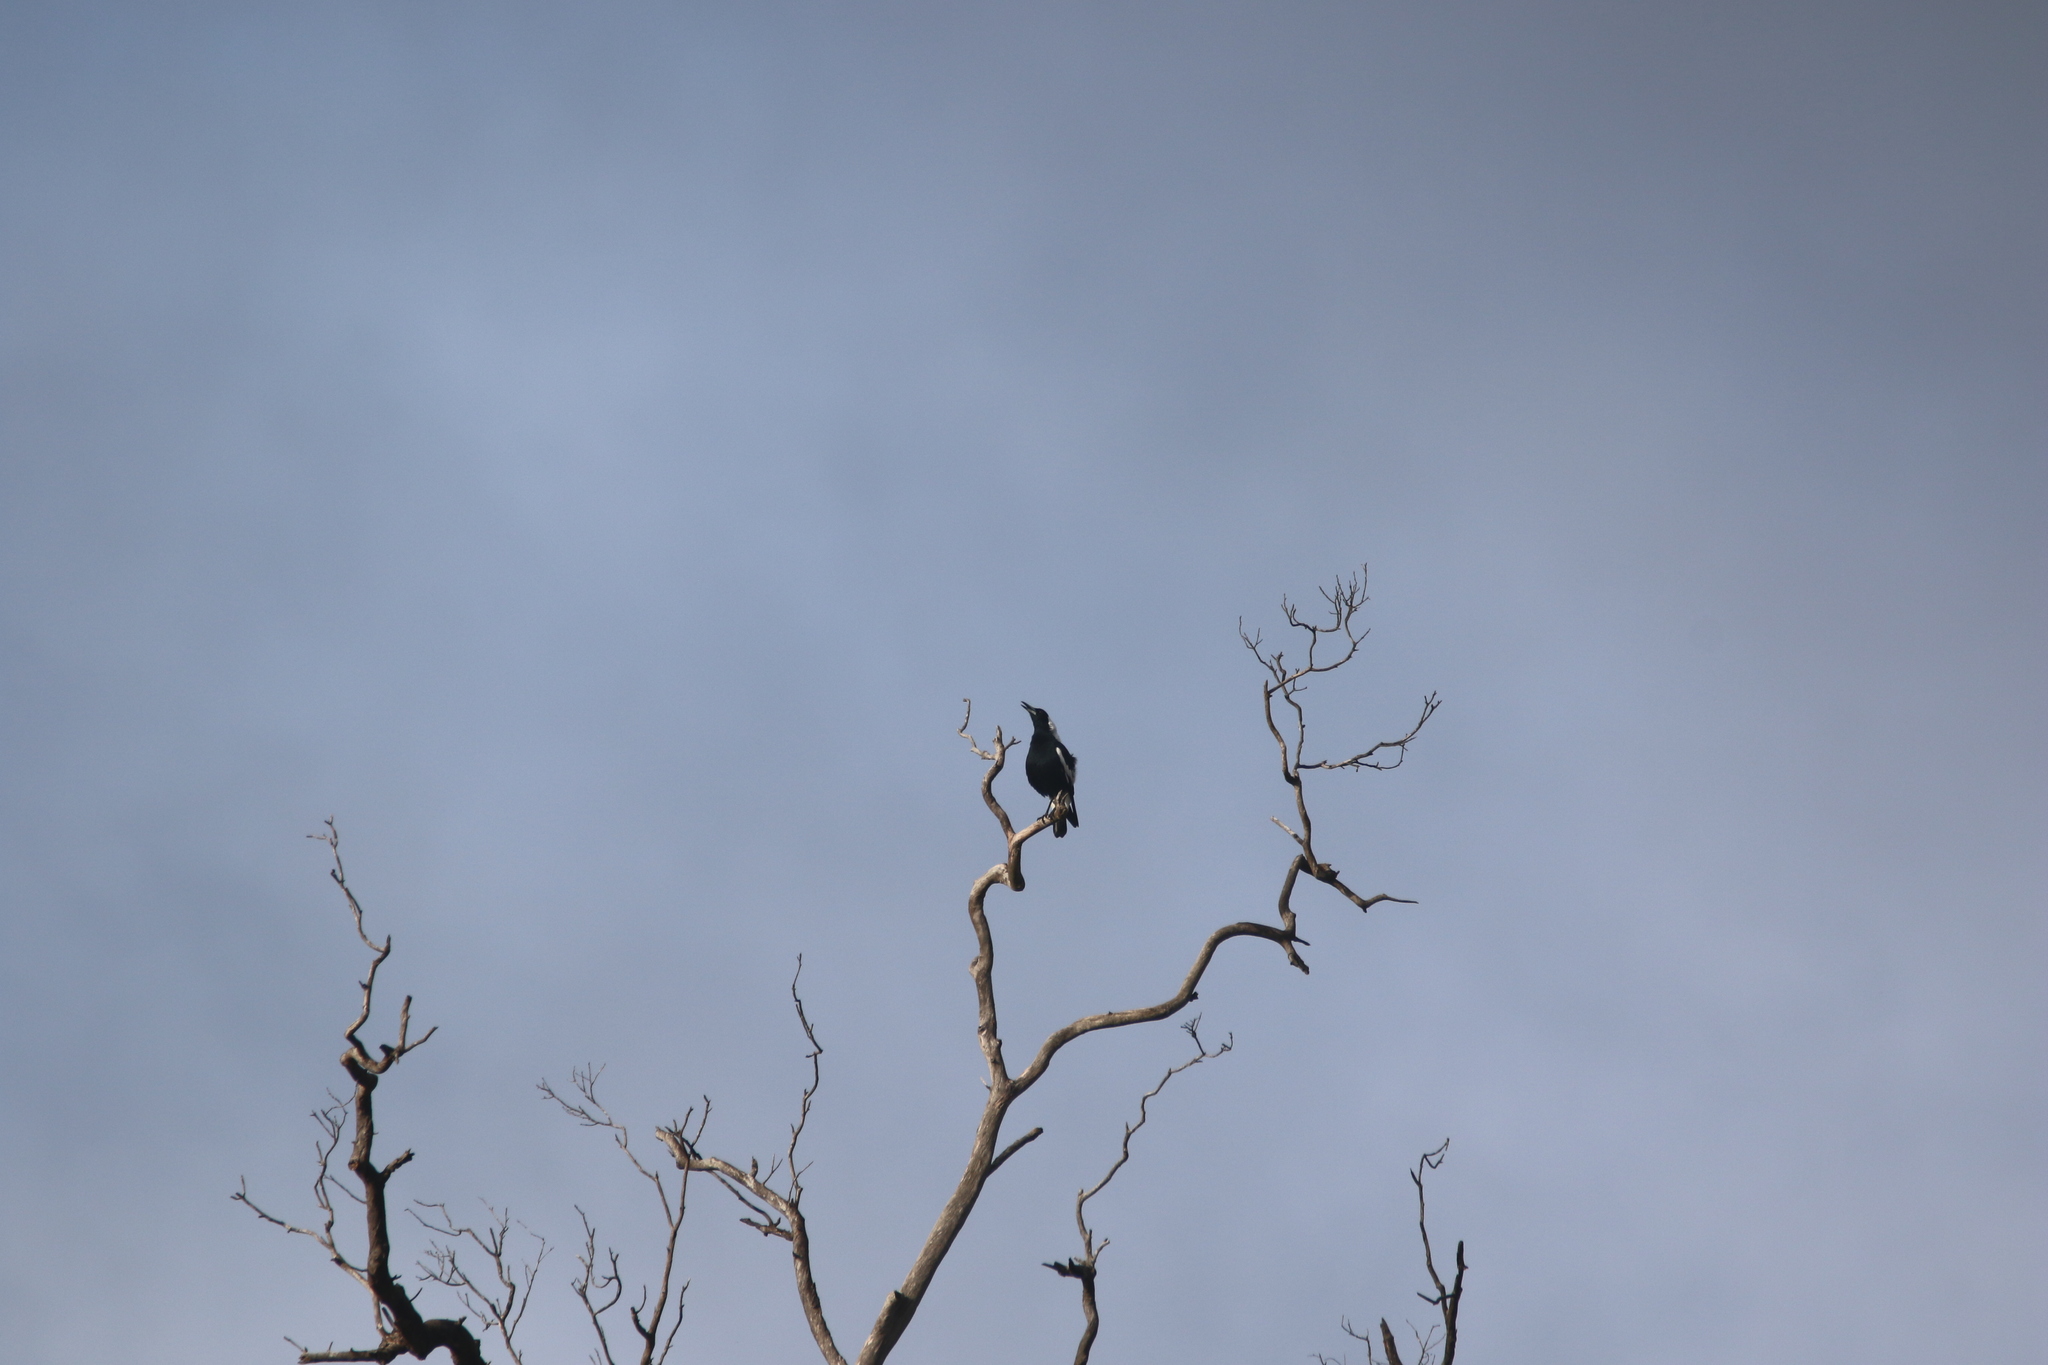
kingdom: Animalia
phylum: Chordata
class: Aves
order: Passeriformes
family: Cracticidae
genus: Gymnorhina
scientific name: Gymnorhina tibicen
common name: Australian magpie
